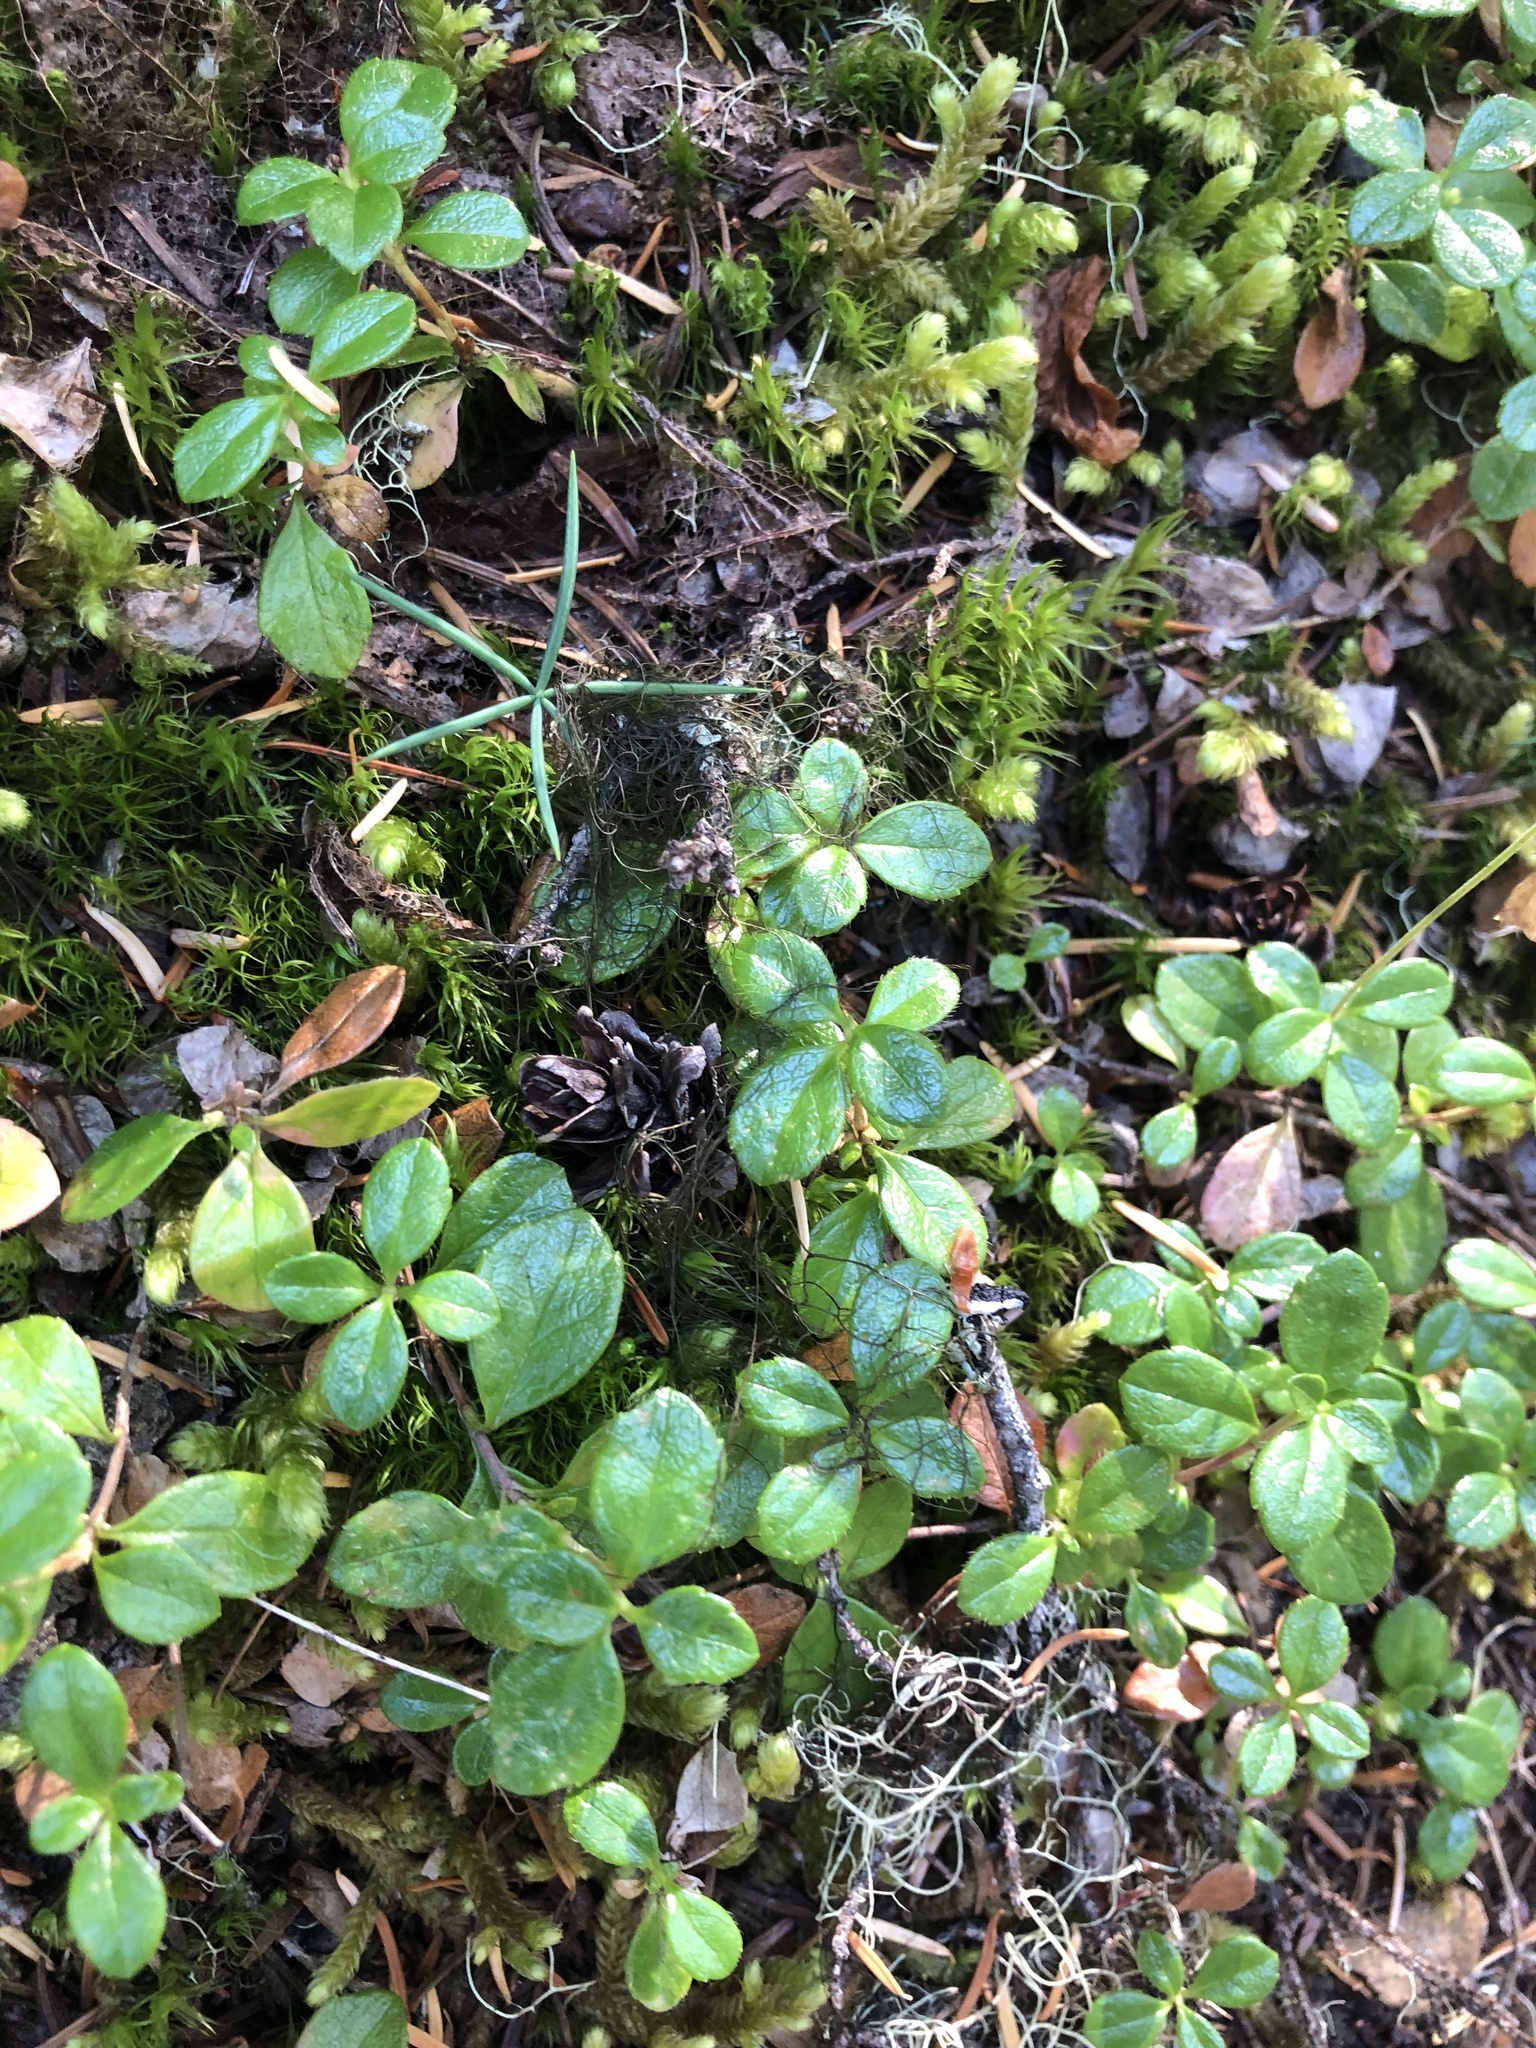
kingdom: Plantae
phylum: Tracheophyta
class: Magnoliopsida
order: Dipsacales
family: Caprifoliaceae
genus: Linnaea
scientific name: Linnaea borealis
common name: Twinflower
